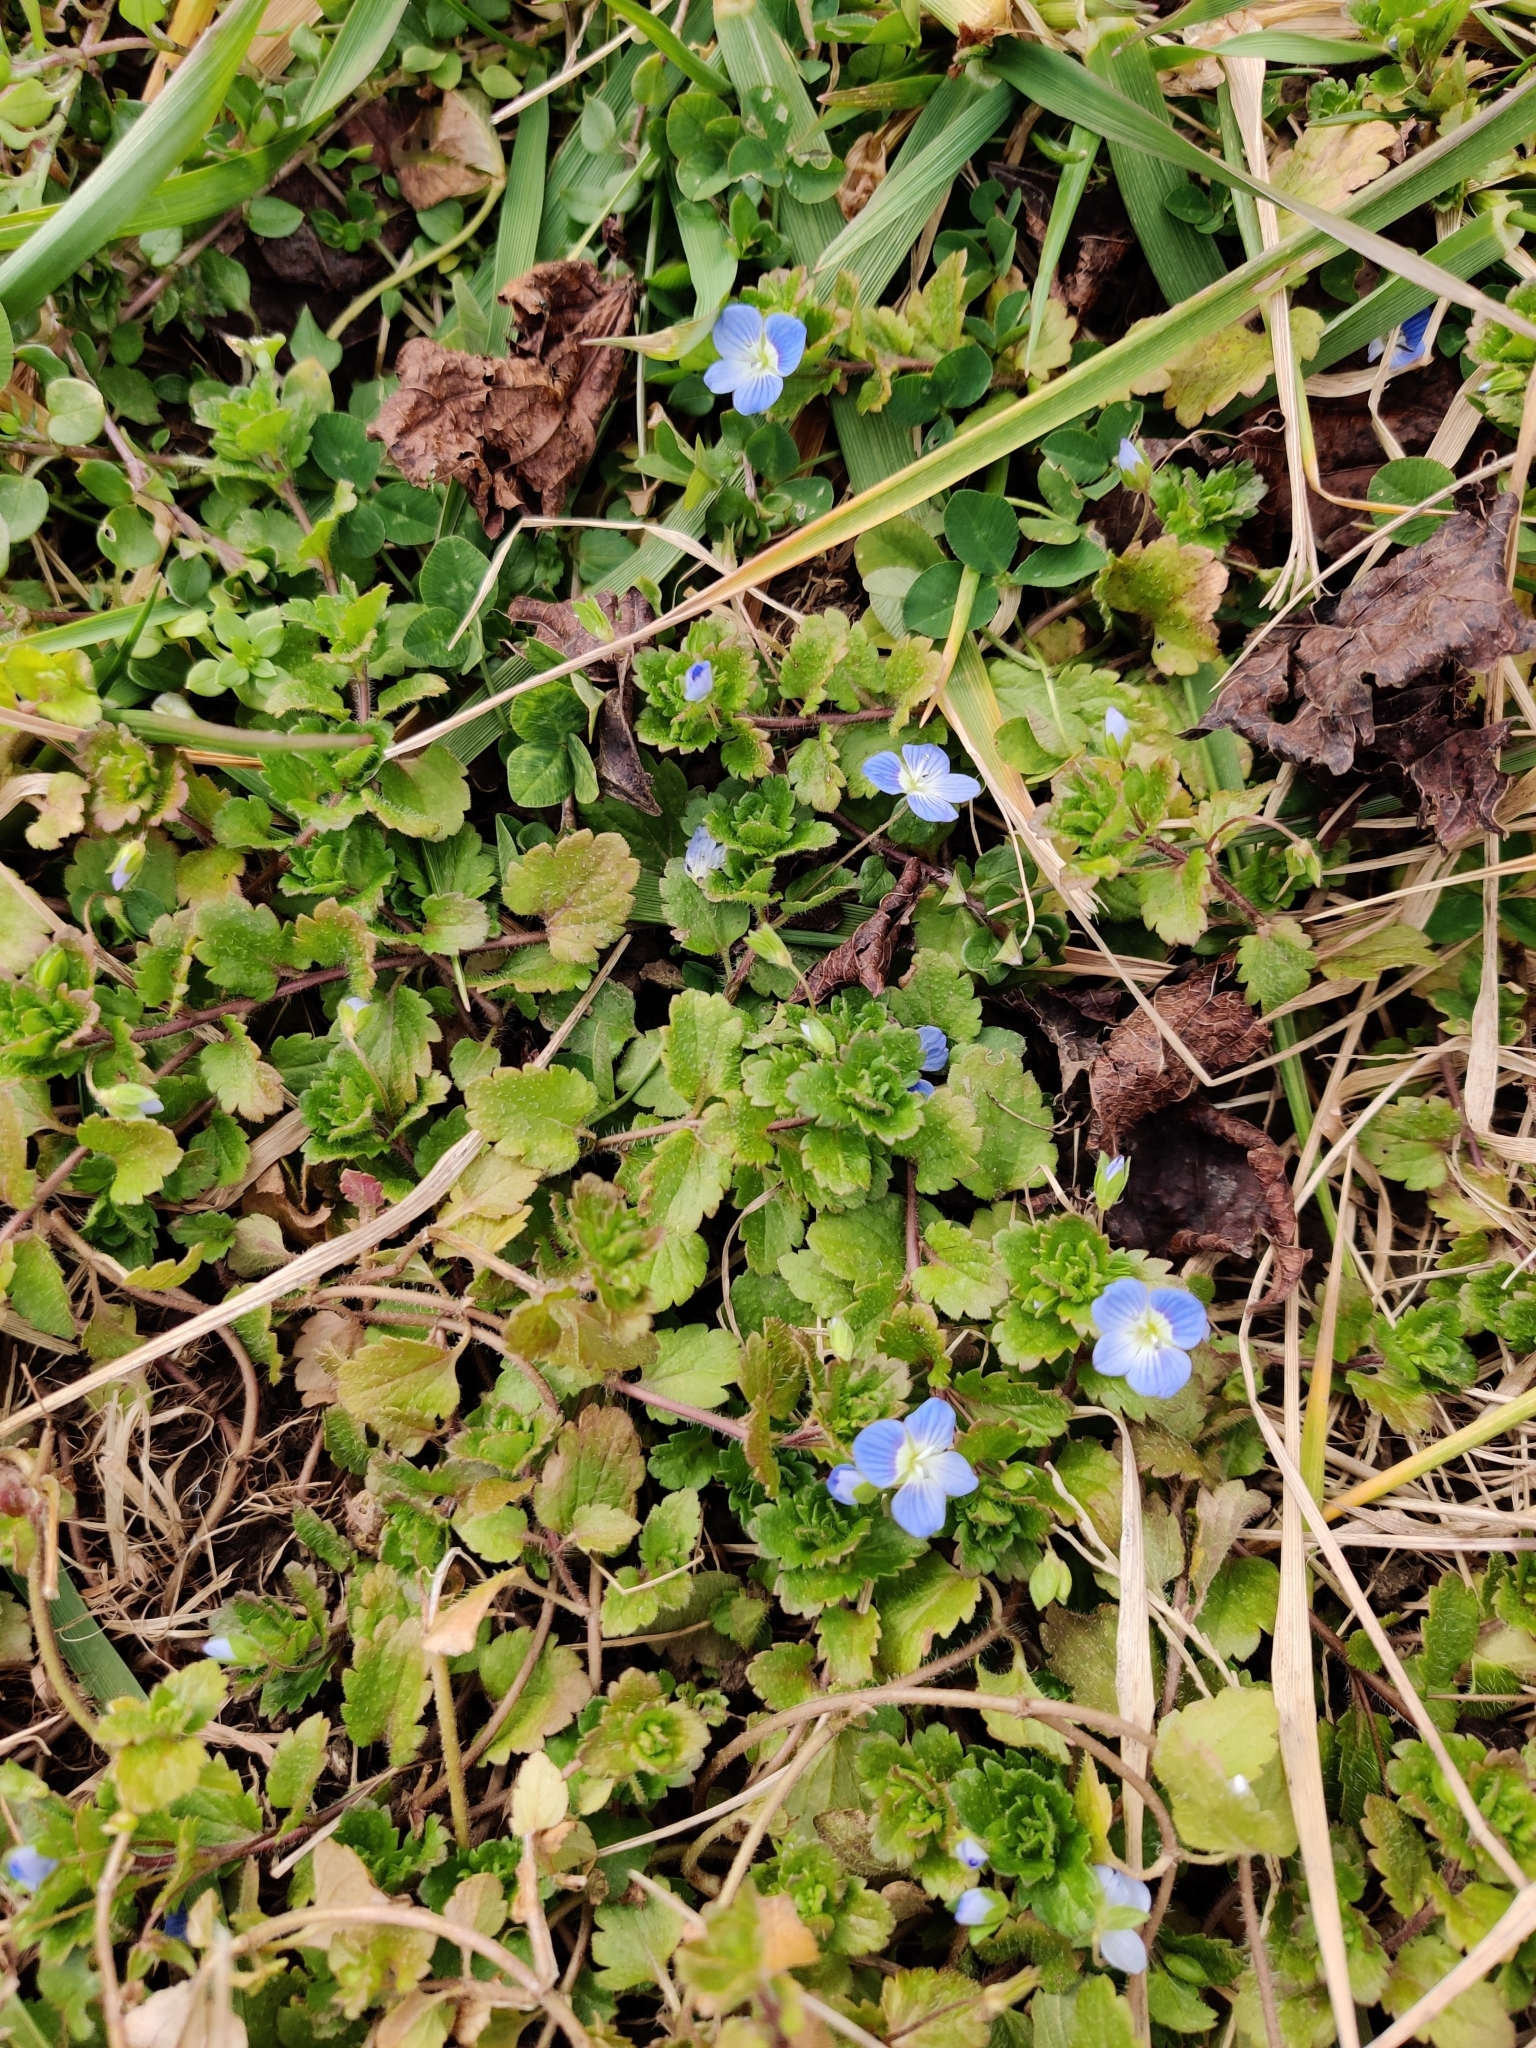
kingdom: Plantae
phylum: Tracheophyta
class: Magnoliopsida
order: Lamiales
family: Plantaginaceae
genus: Veronica
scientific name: Veronica persica
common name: Common field-speedwell
